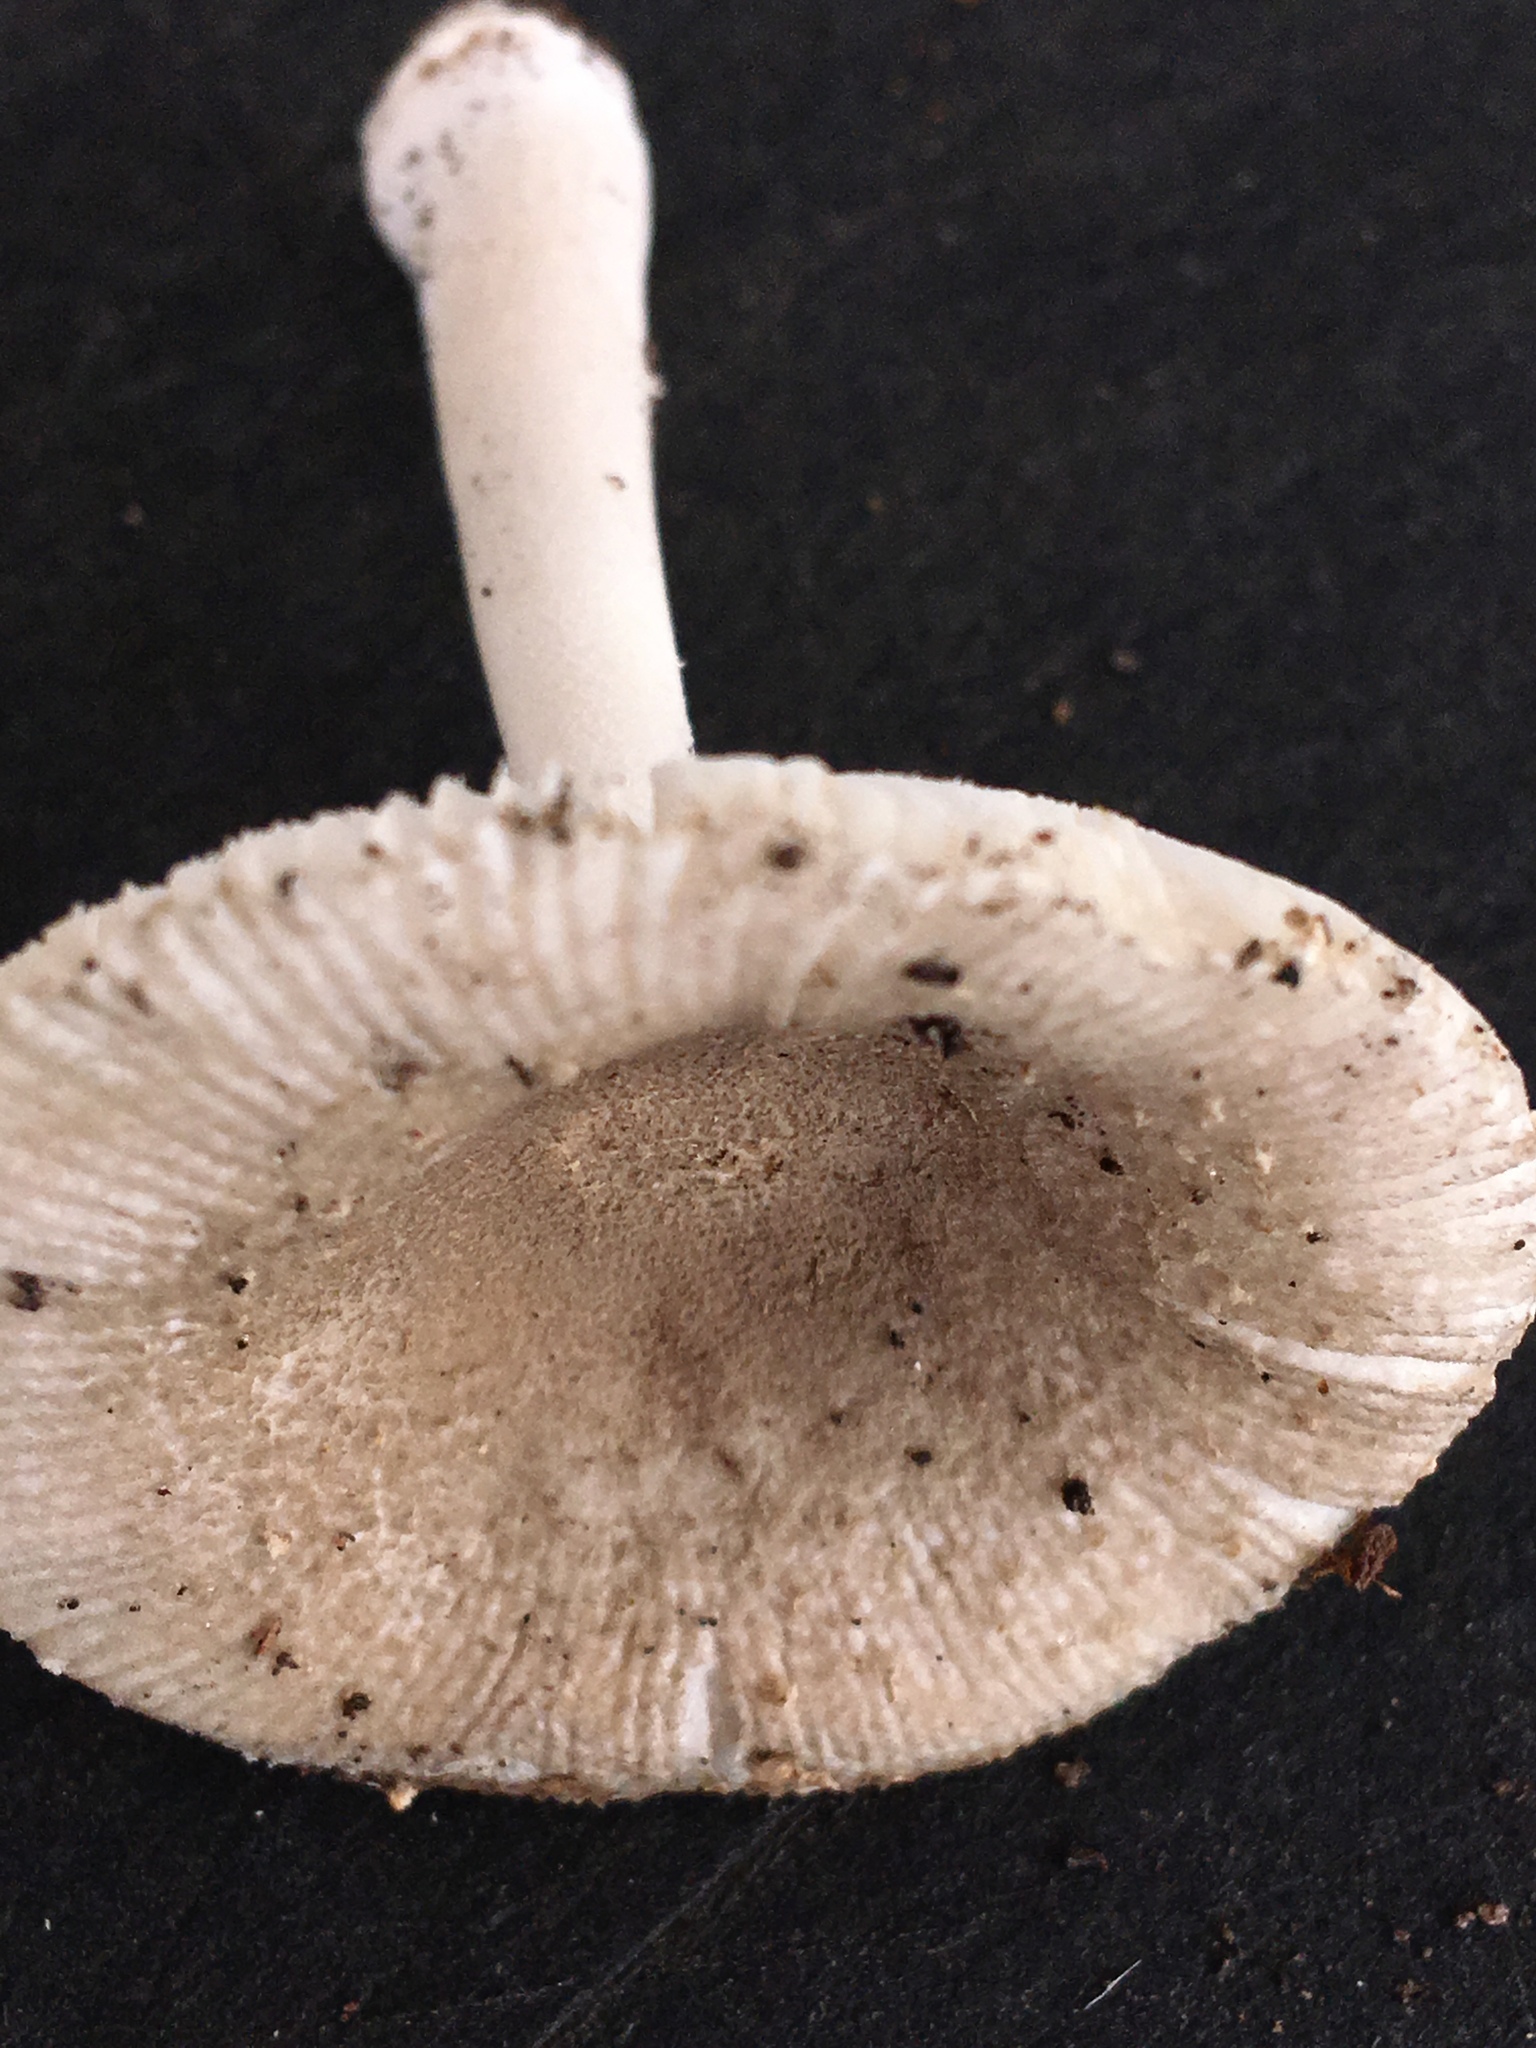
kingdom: Fungi
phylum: Basidiomycota
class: Agaricomycetes
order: Agaricales
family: Amanitaceae
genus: Amanita
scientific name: Amanita farinosa
